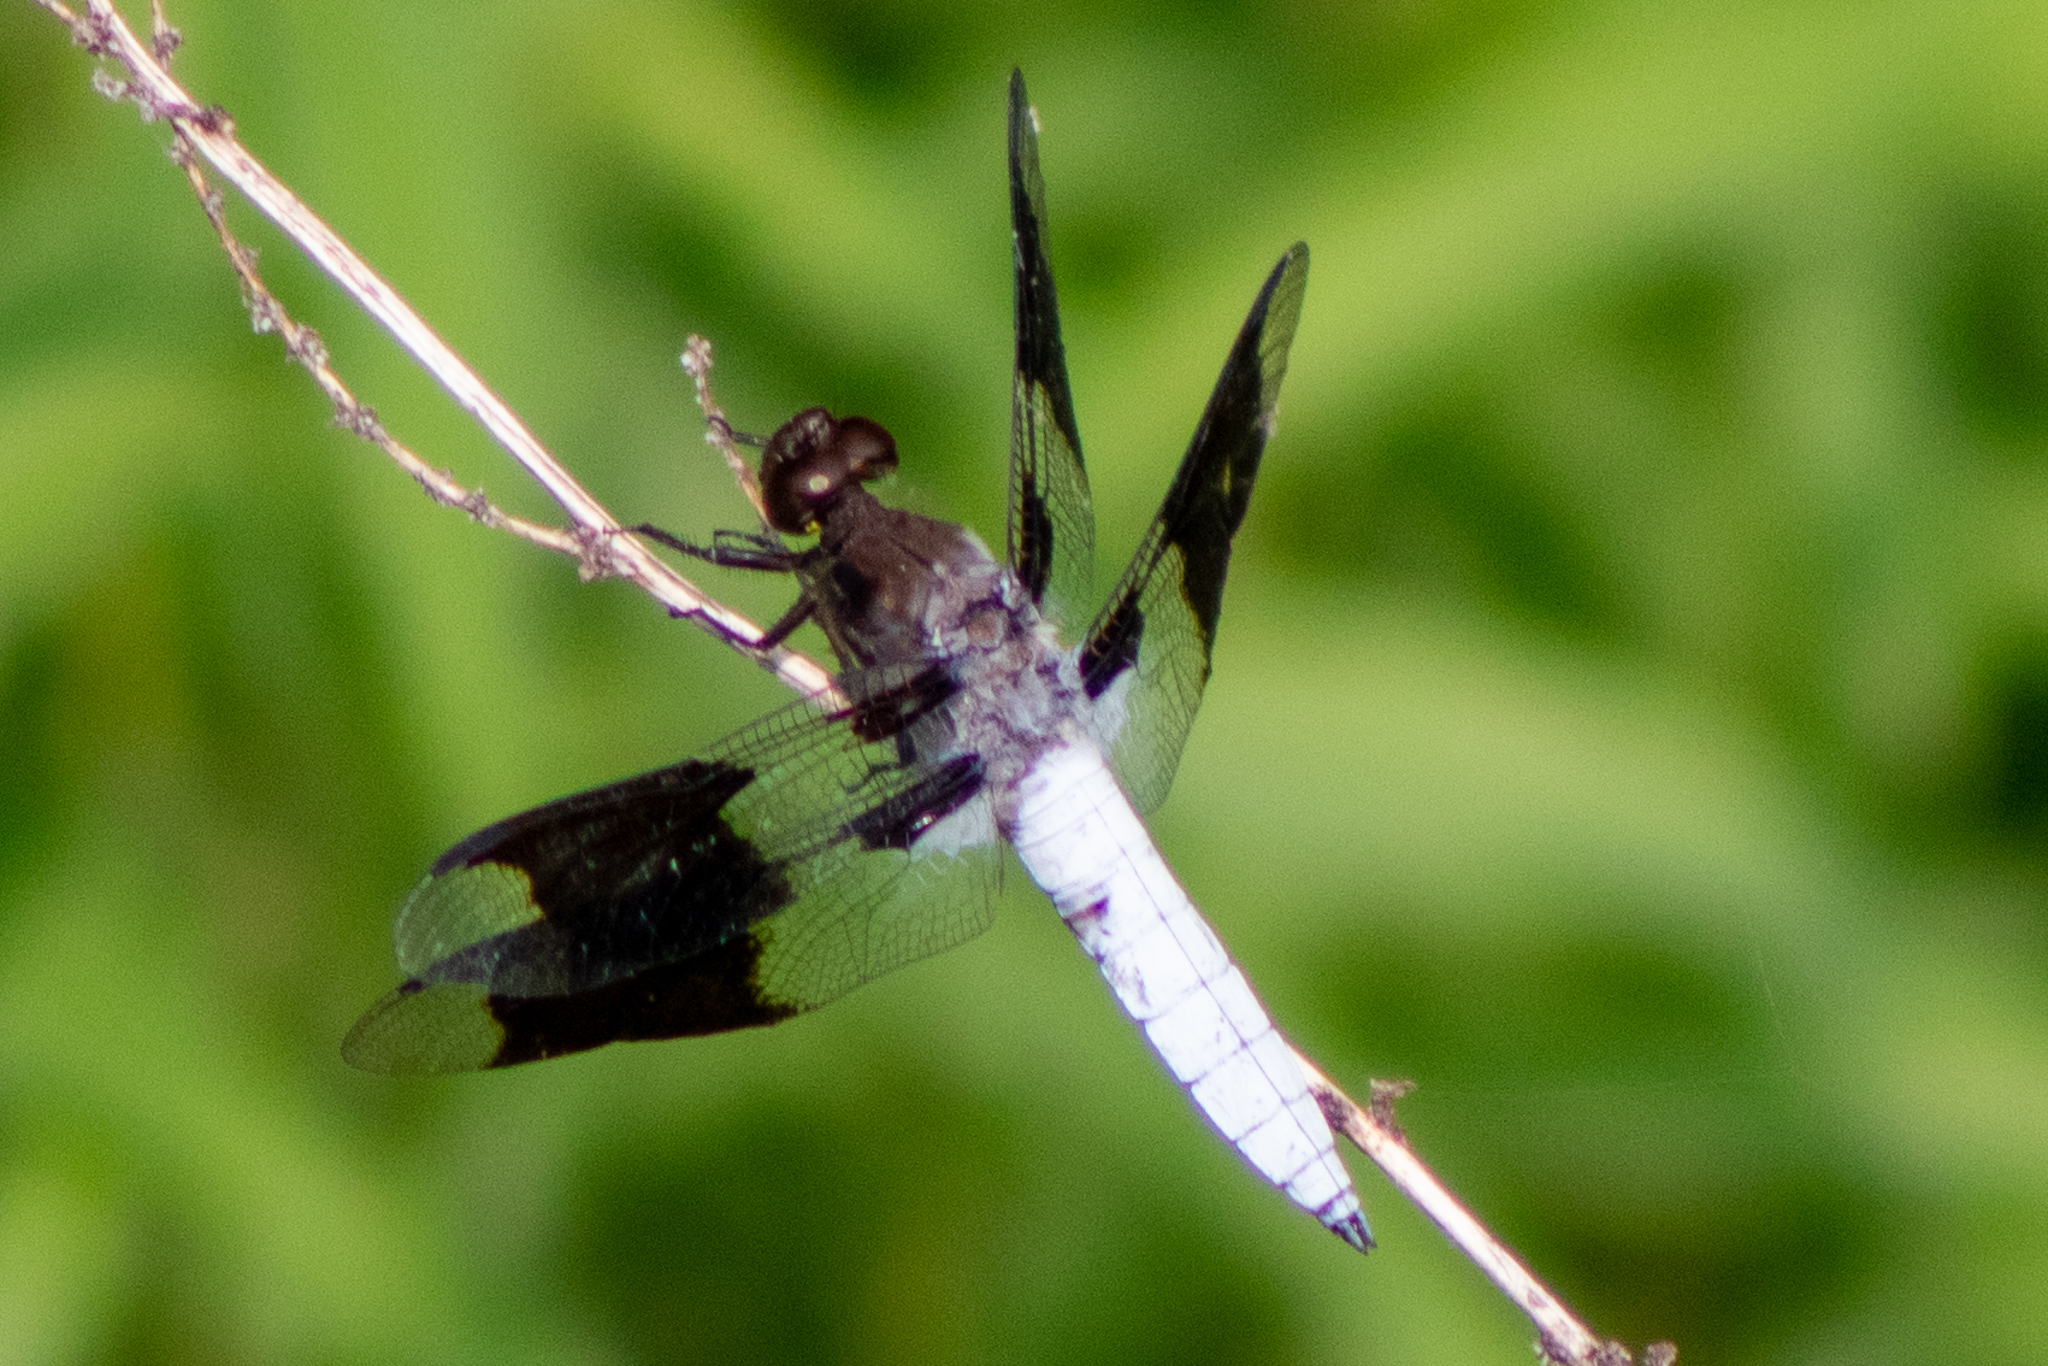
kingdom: Animalia
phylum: Arthropoda
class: Insecta
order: Odonata
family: Libellulidae
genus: Plathemis
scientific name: Plathemis lydia
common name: Common whitetail
